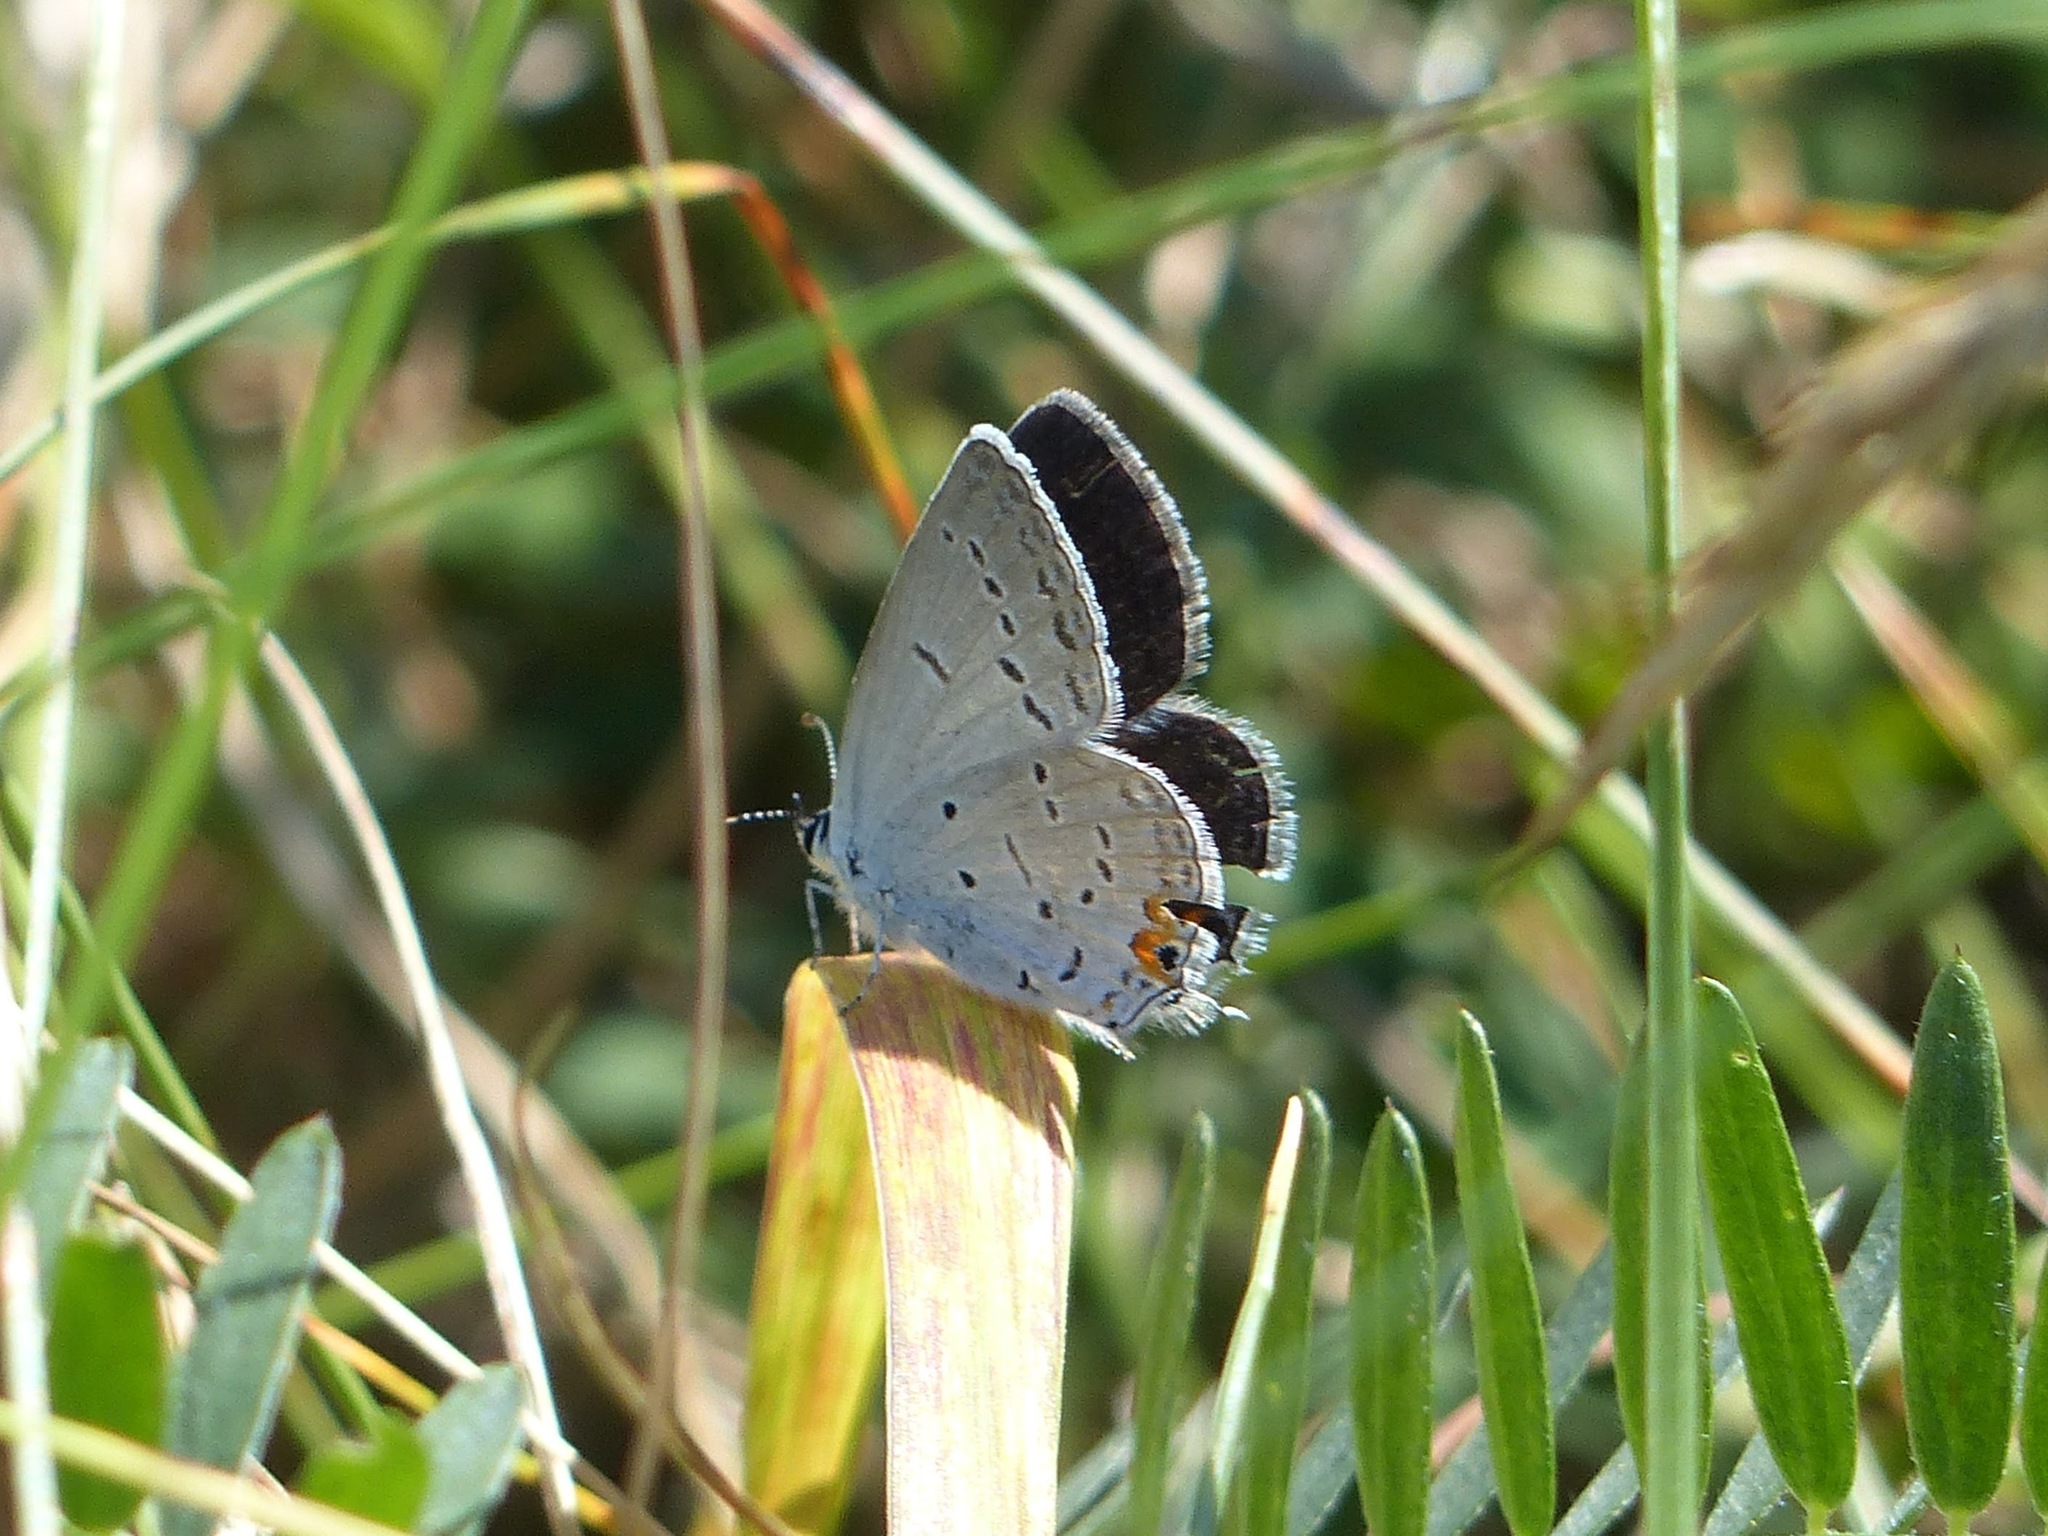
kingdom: Animalia
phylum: Arthropoda
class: Insecta
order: Lepidoptera
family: Lycaenidae
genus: Elkalyce
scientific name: Elkalyce comyntas
